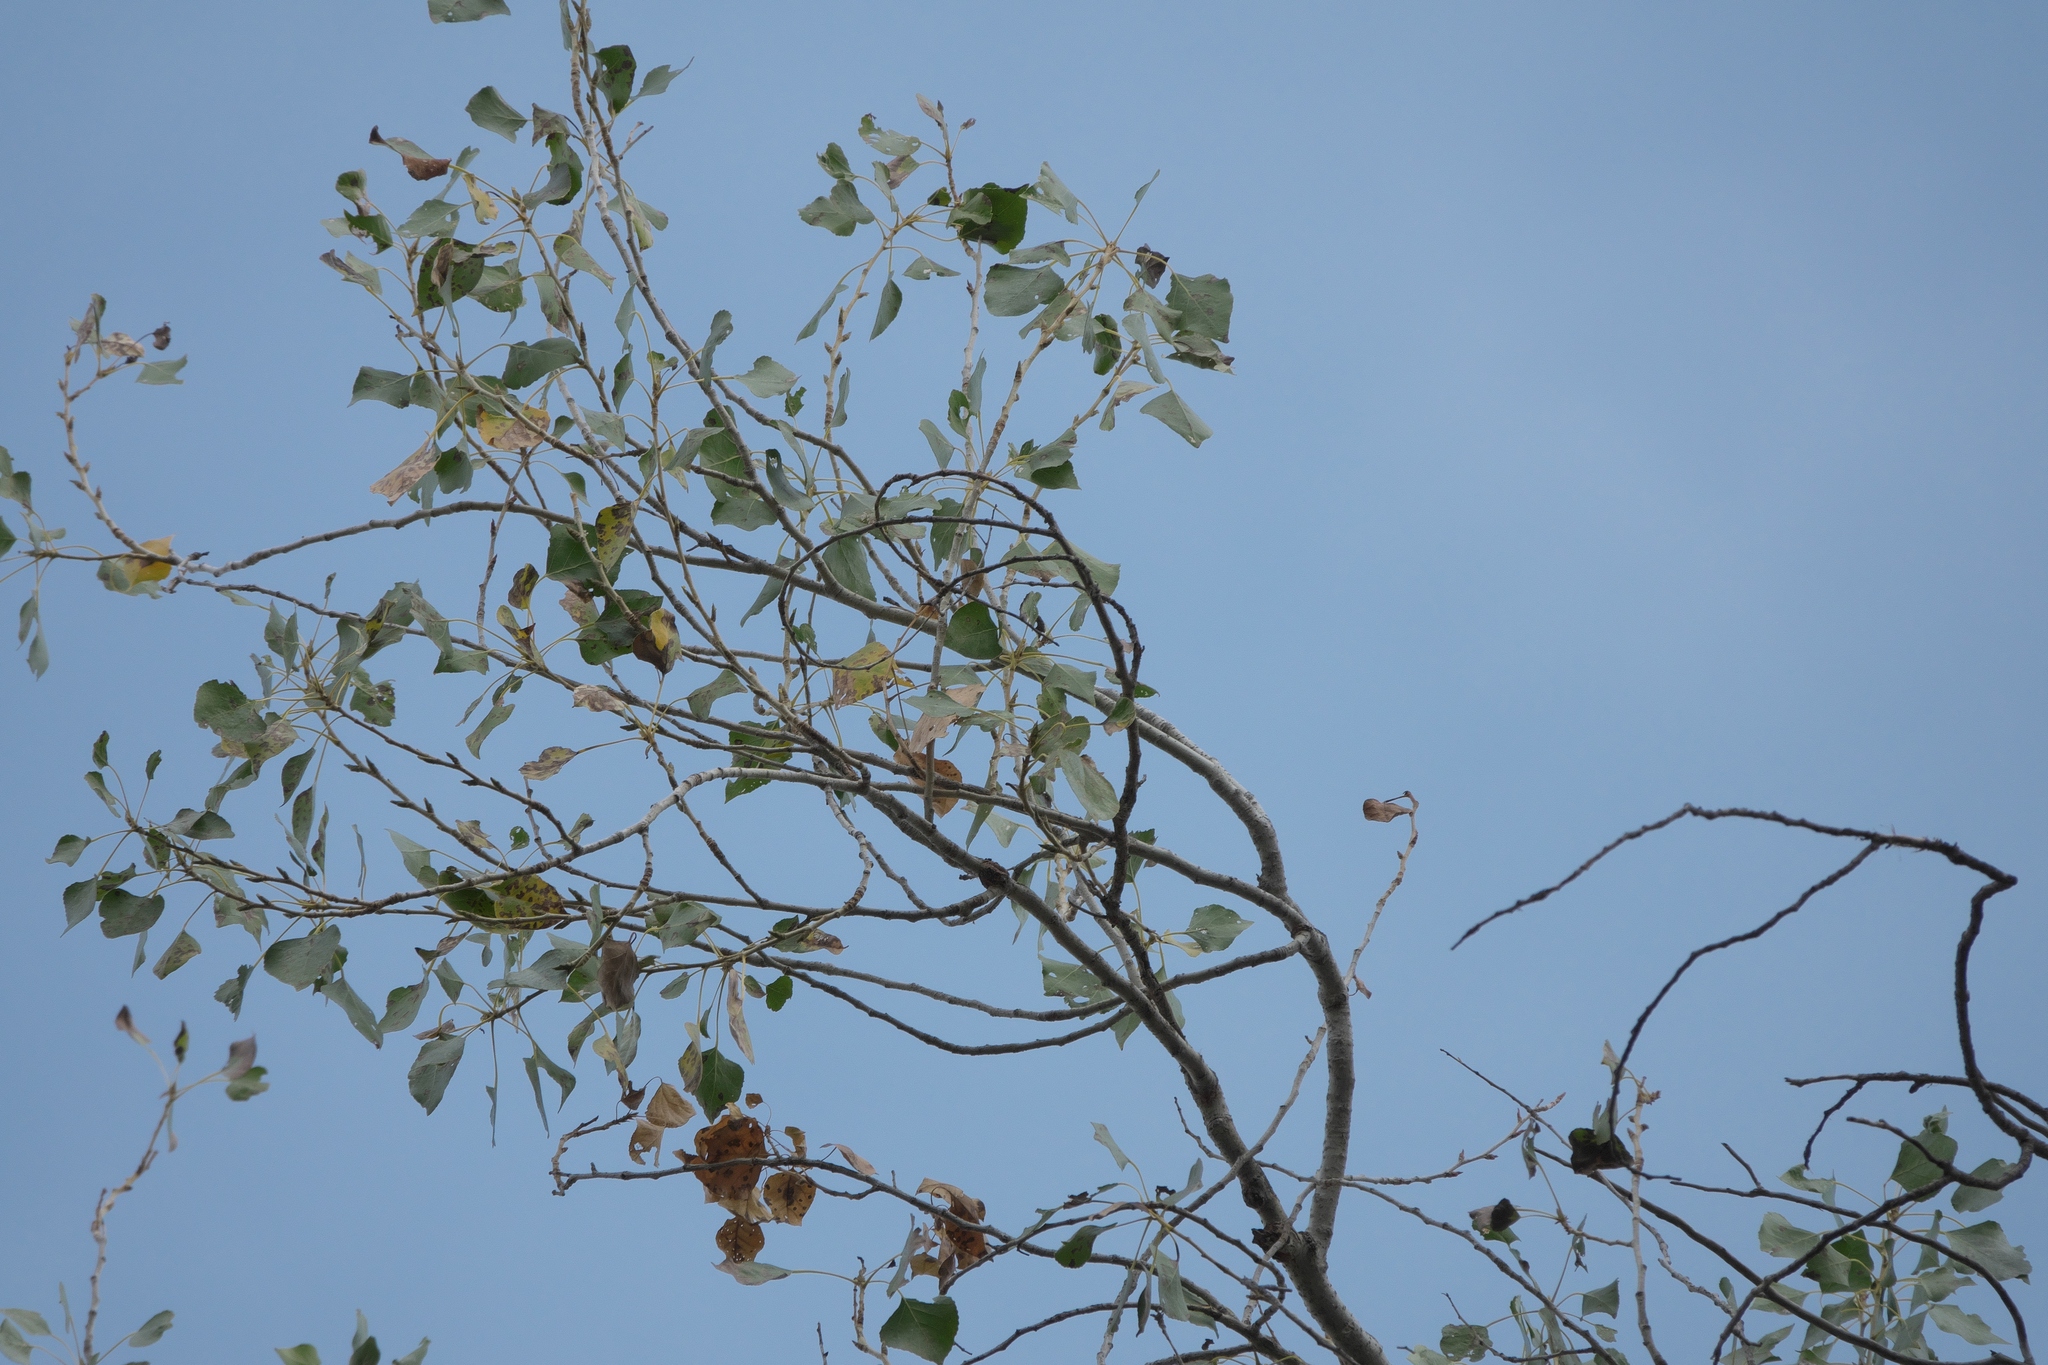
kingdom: Plantae
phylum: Tracheophyta
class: Magnoliopsida
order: Malpighiales
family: Salicaceae
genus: Populus
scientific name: Populus fremontii
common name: Fremont's cottonwood
